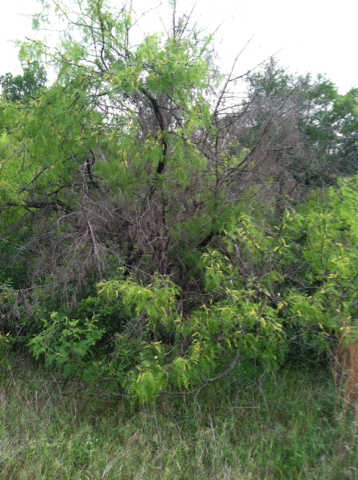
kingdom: Plantae
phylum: Tracheophyta
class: Magnoliopsida
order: Fabales
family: Fabaceae
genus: Prosopis
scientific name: Prosopis glandulosa
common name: Honey mesquite
